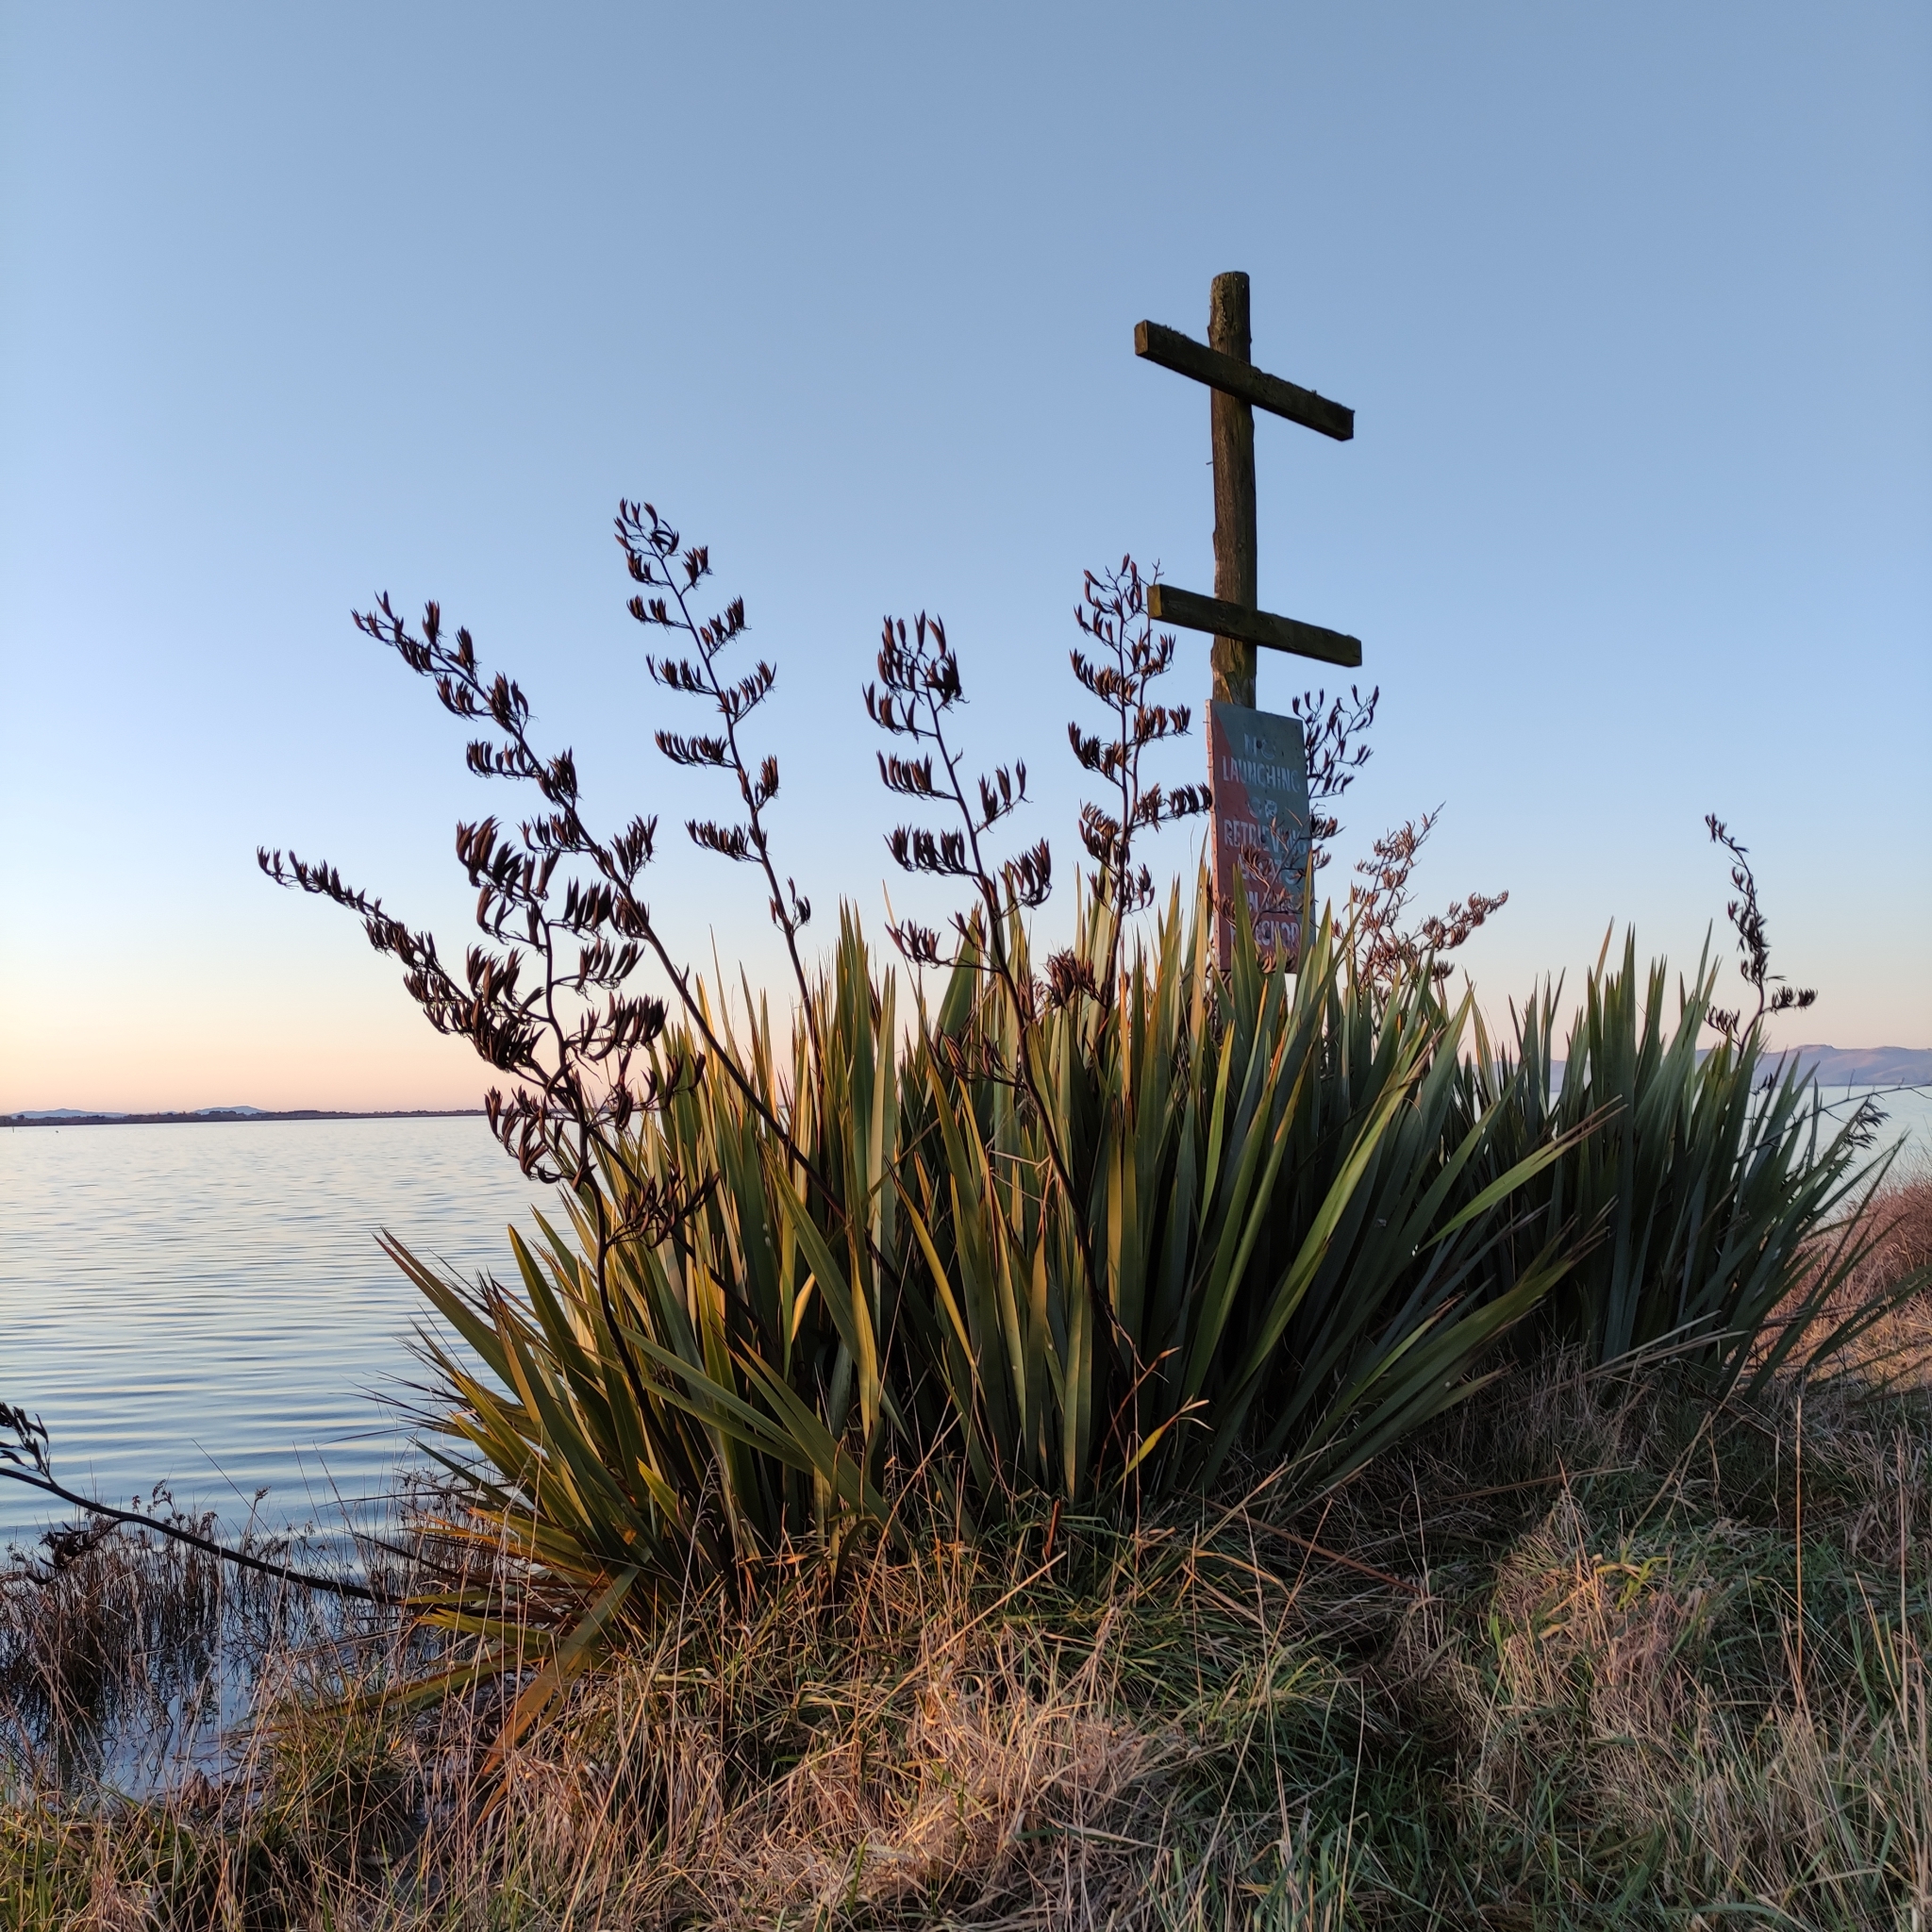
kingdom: Plantae
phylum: Tracheophyta
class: Liliopsida
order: Asparagales
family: Asphodelaceae
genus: Phormium
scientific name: Phormium tenax
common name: New zealand flax
